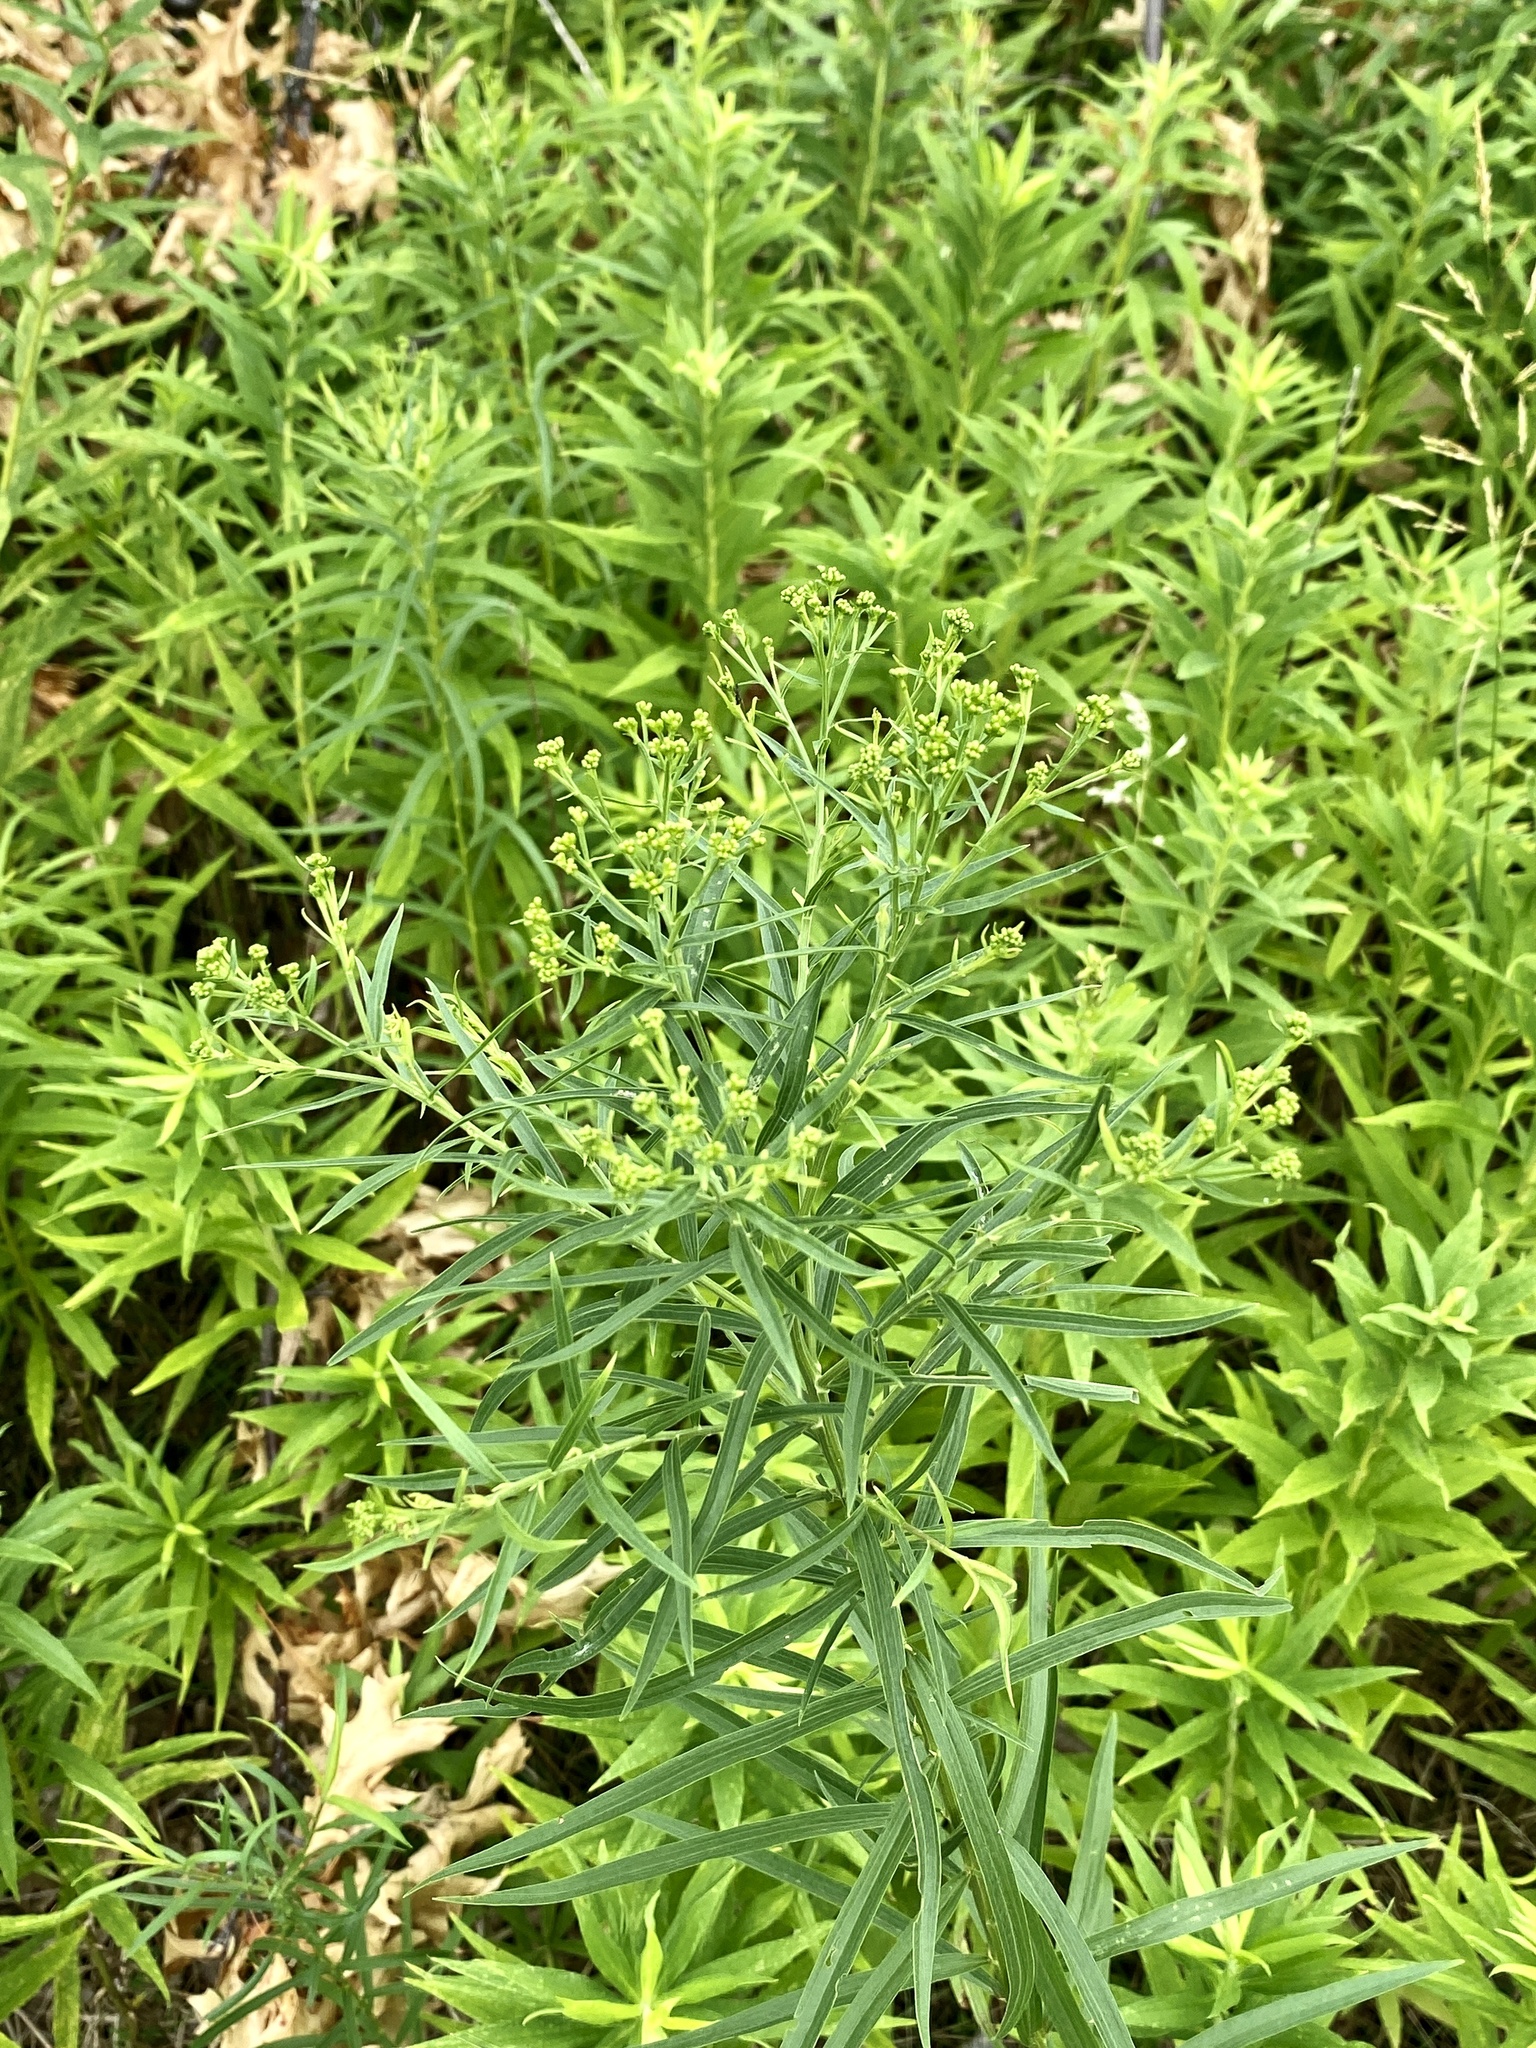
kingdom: Plantae
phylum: Tracheophyta
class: Magnoliopsida
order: Asterales
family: Asteraceae
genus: Euthamia
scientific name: Euthamia graminifolia
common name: Common goldentop
